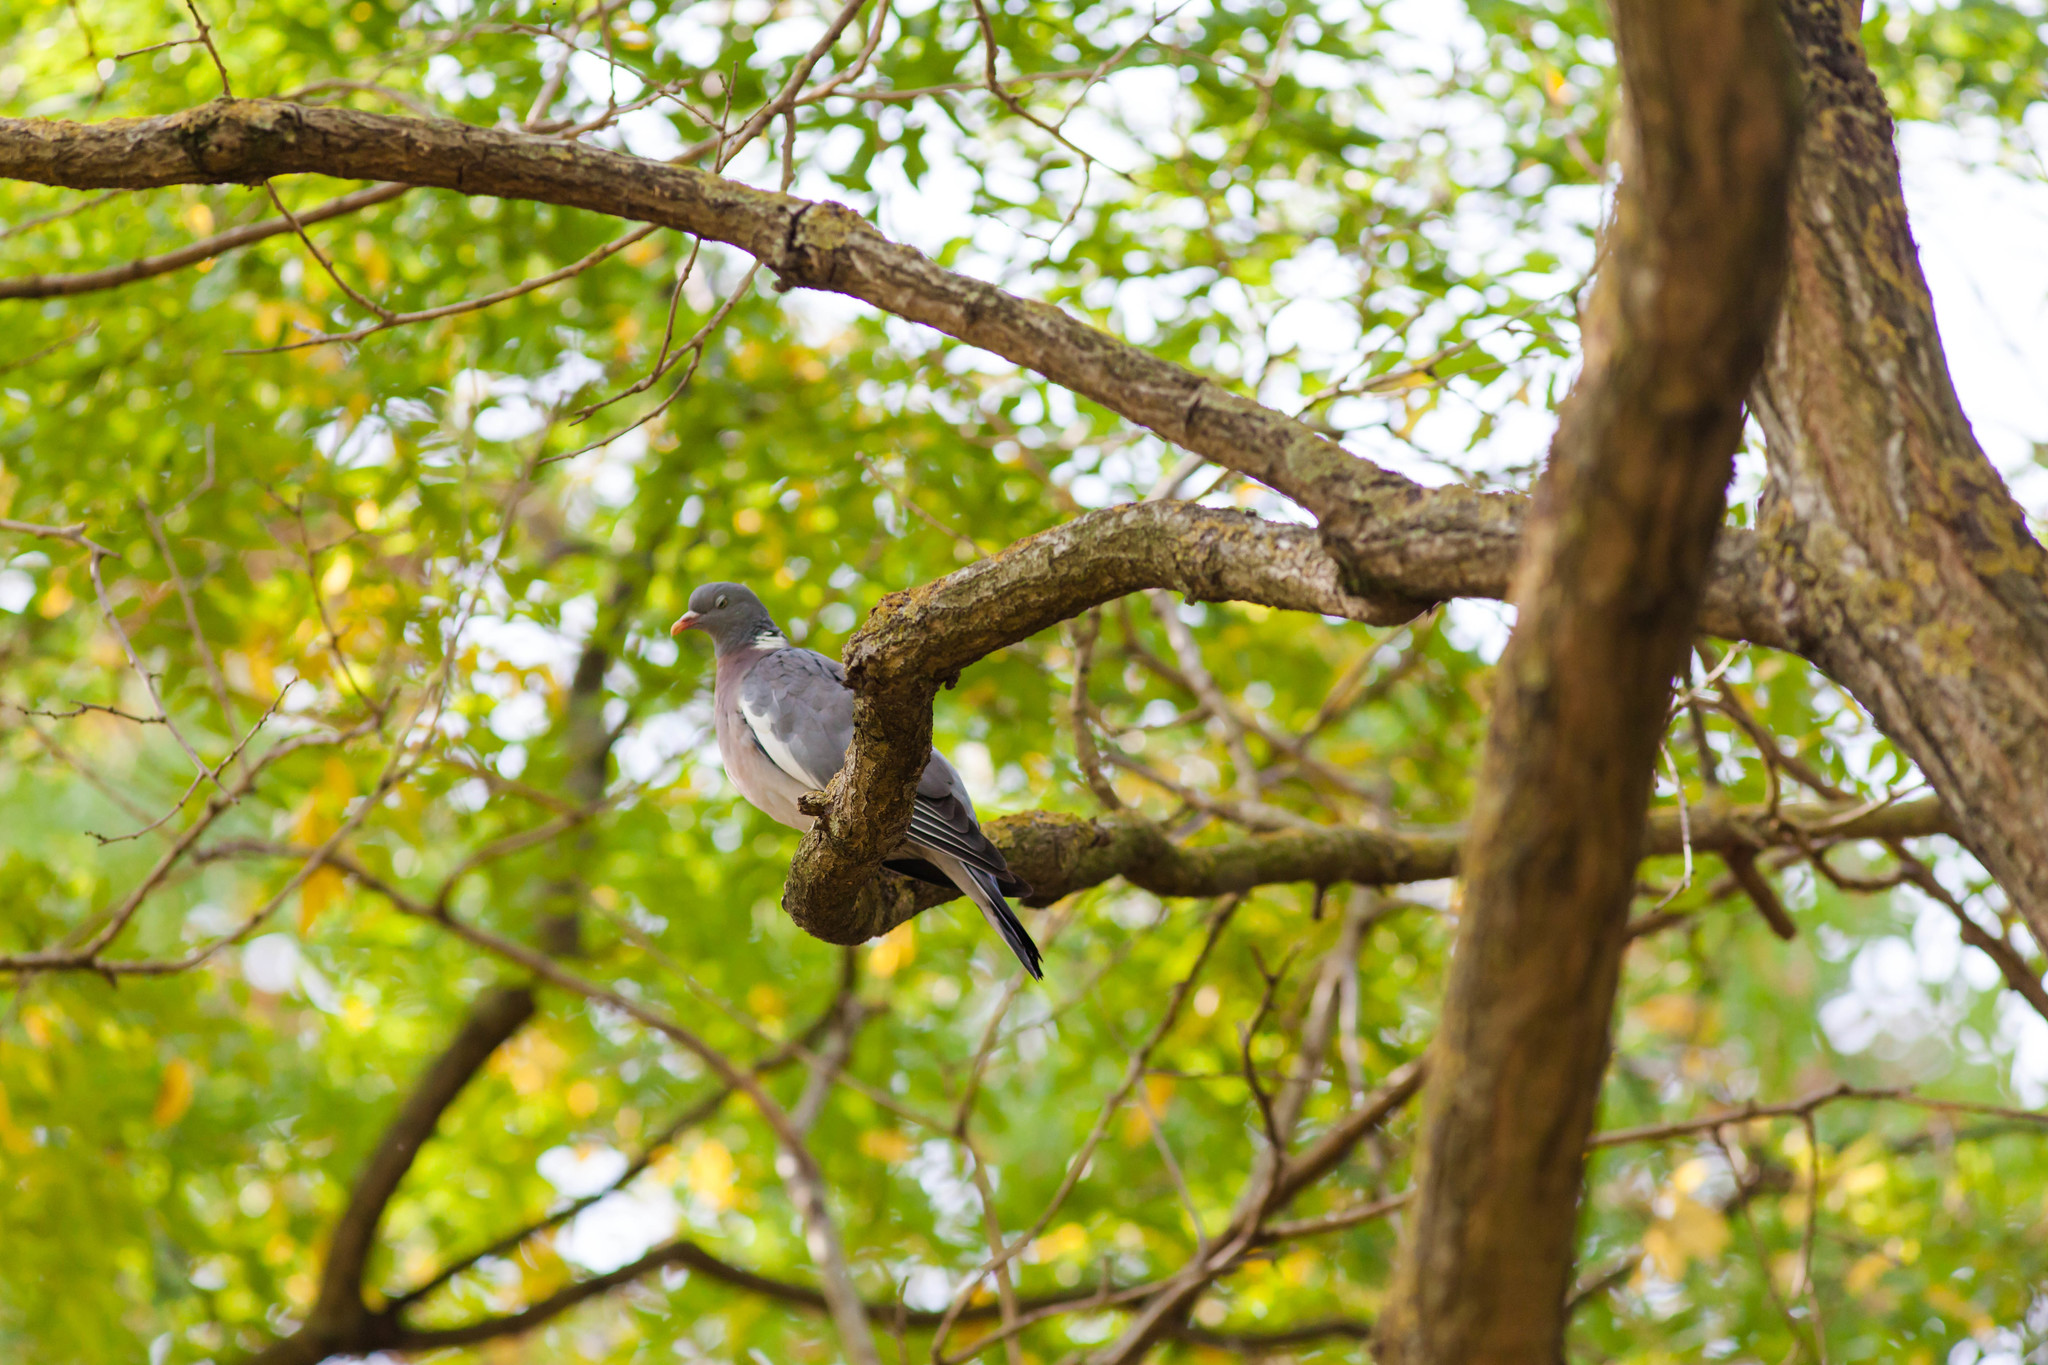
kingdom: Animalia
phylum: Chordata
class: Aves
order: Columbiformes
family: Columbidae
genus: Columba
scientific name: Columba palumbus
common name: Common wood pigeon
